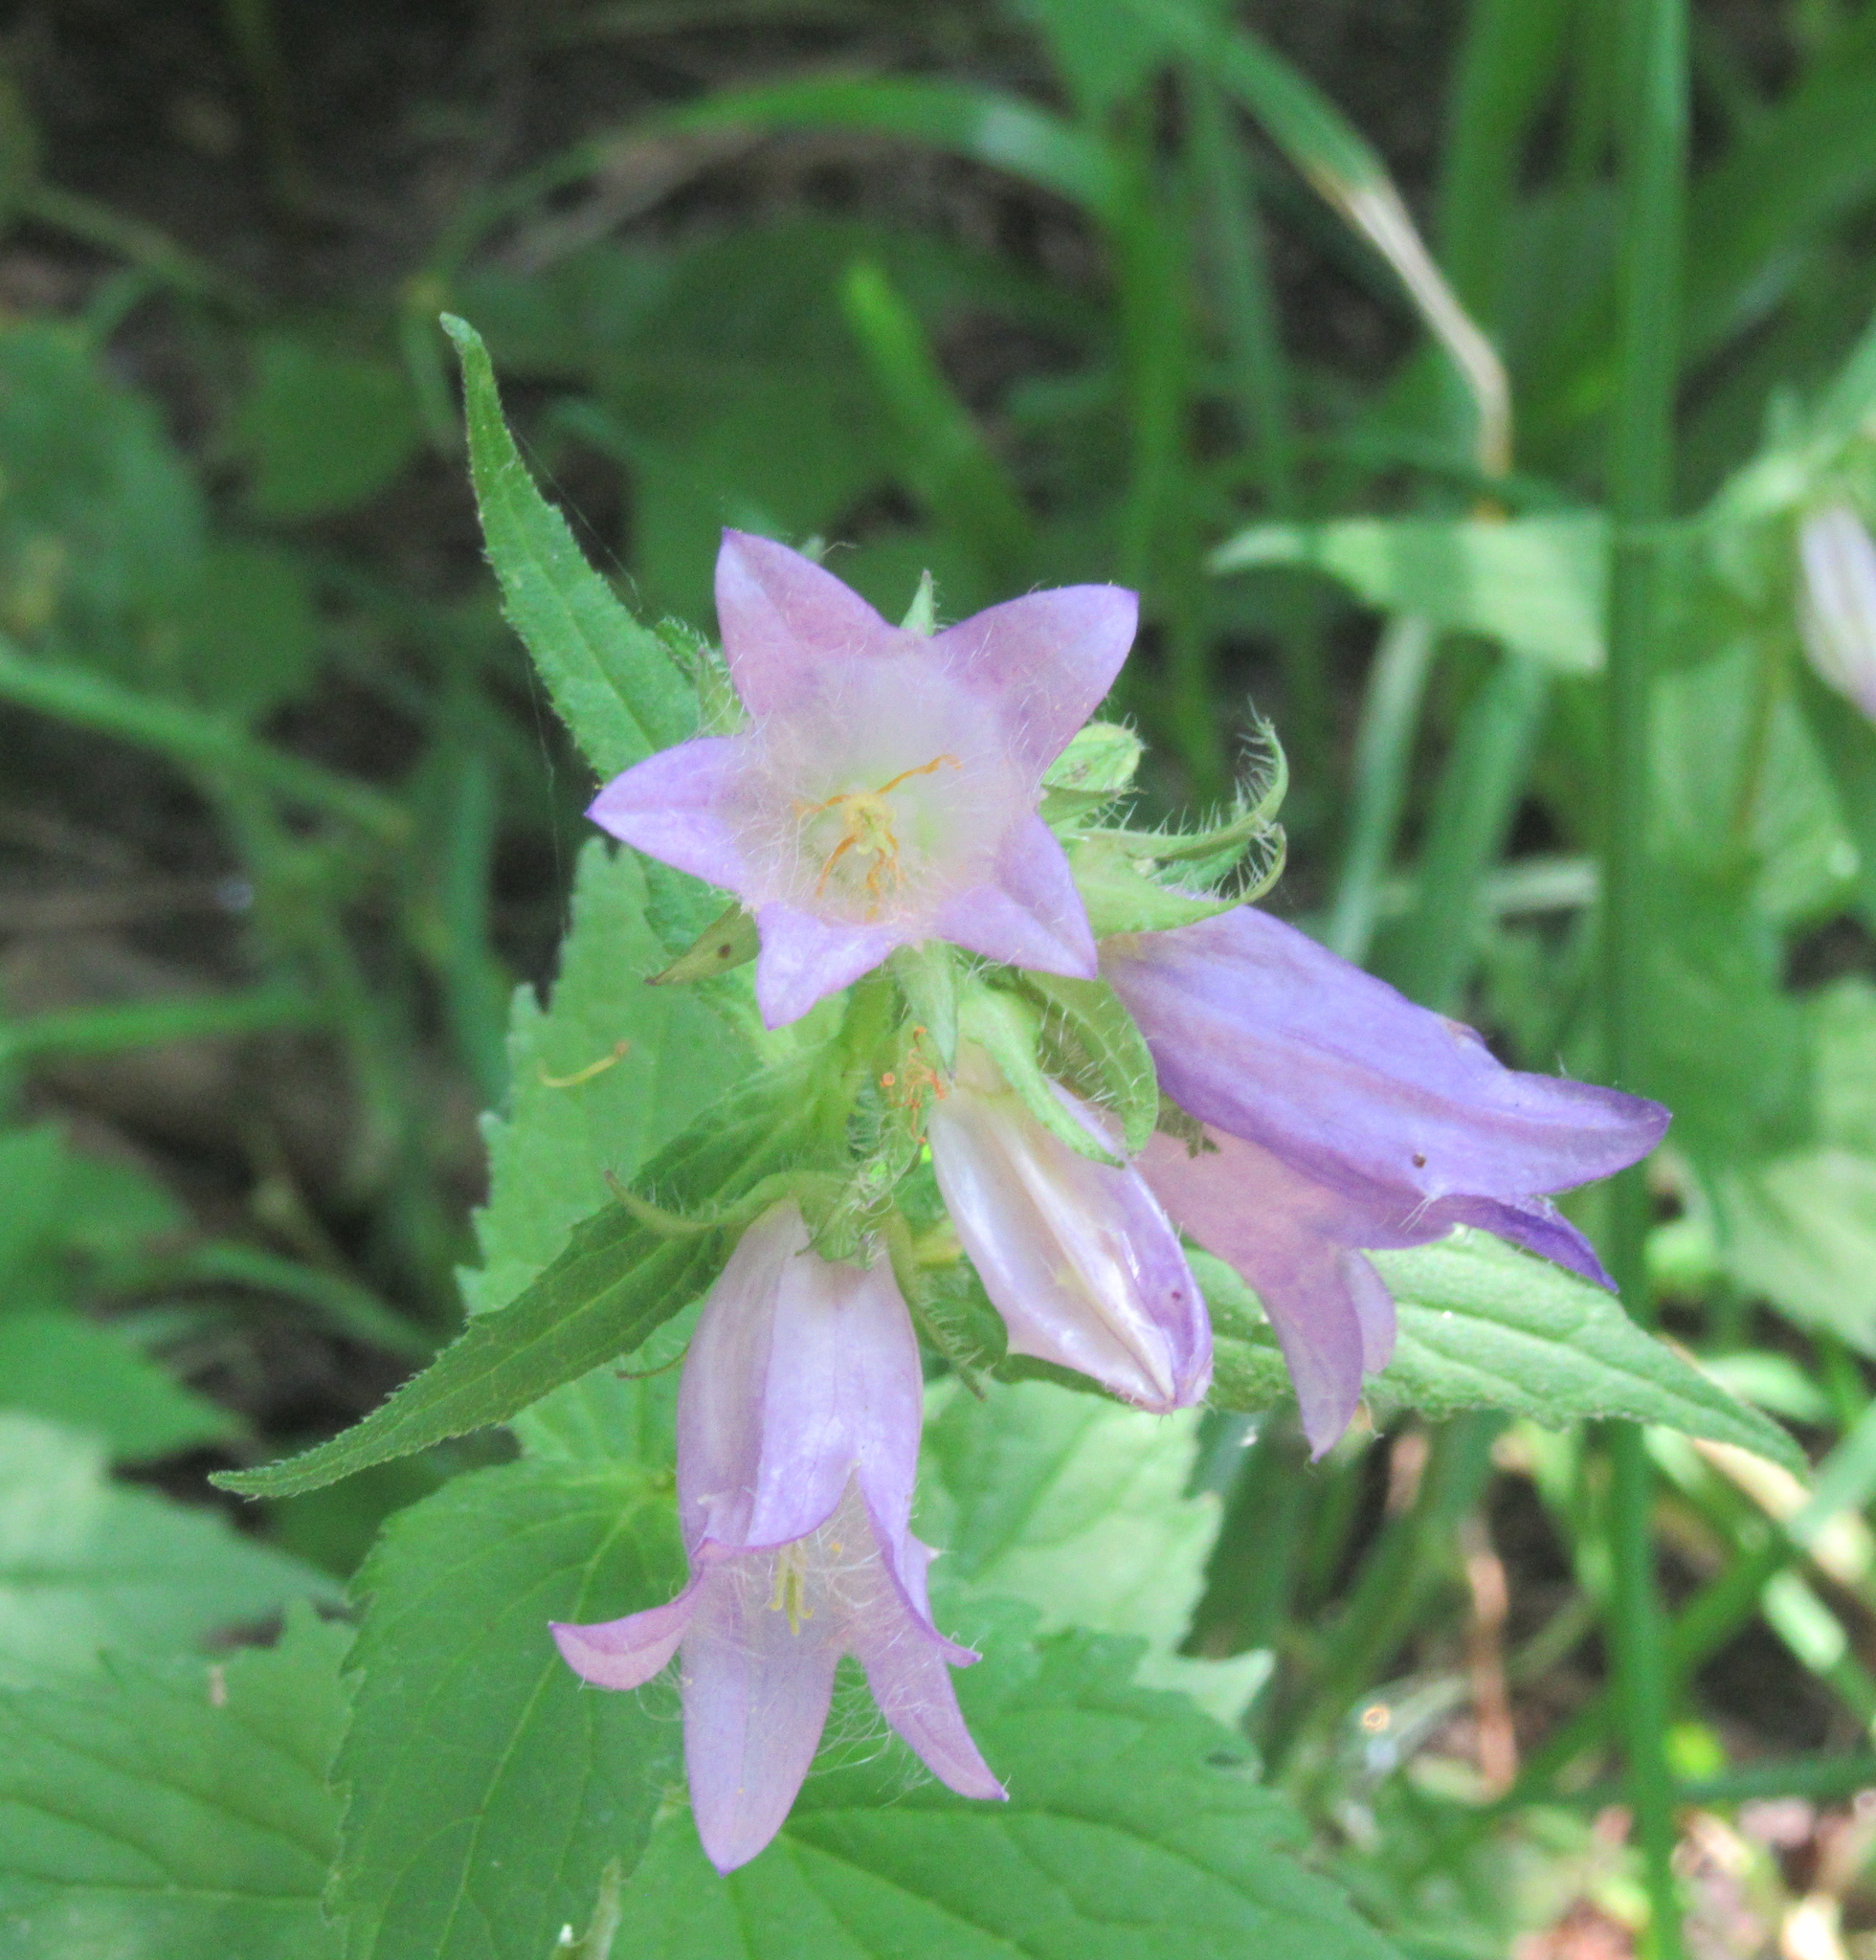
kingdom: Plantae
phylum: Tracheophyta
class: Magnoliopsida
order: Asterales
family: Campanulaceae
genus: Campanula
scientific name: Campanula trachelium
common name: Nettle-leaved bellflower
